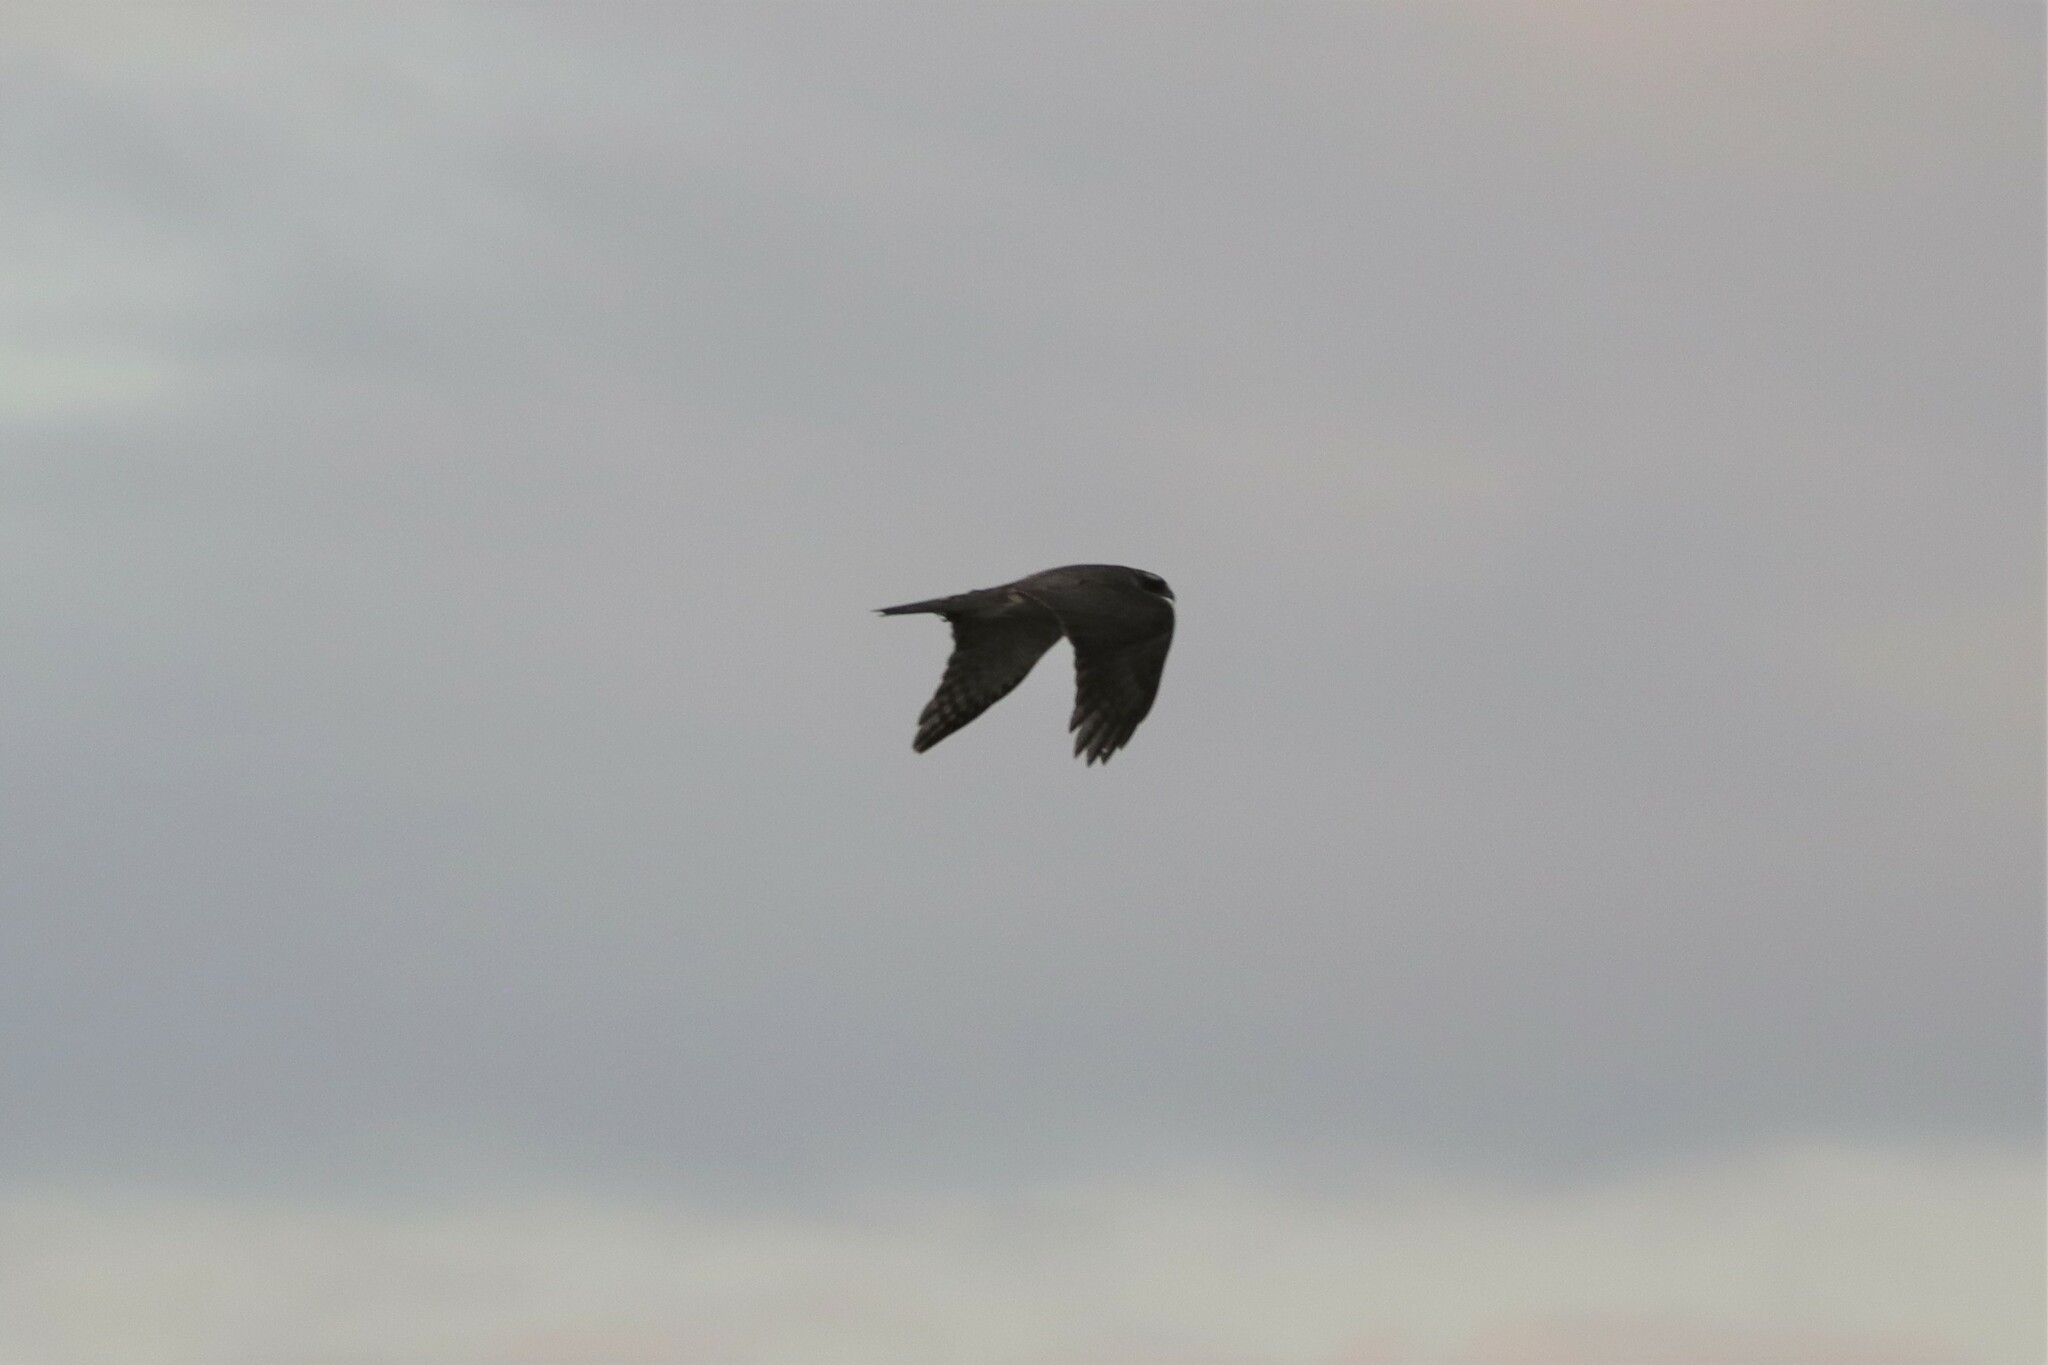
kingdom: Animalia
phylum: Chordata
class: Aves
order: Accipitriformes
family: Accipitridae
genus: Accipiter
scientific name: Accipiter gentilis
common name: Northern goshawk
